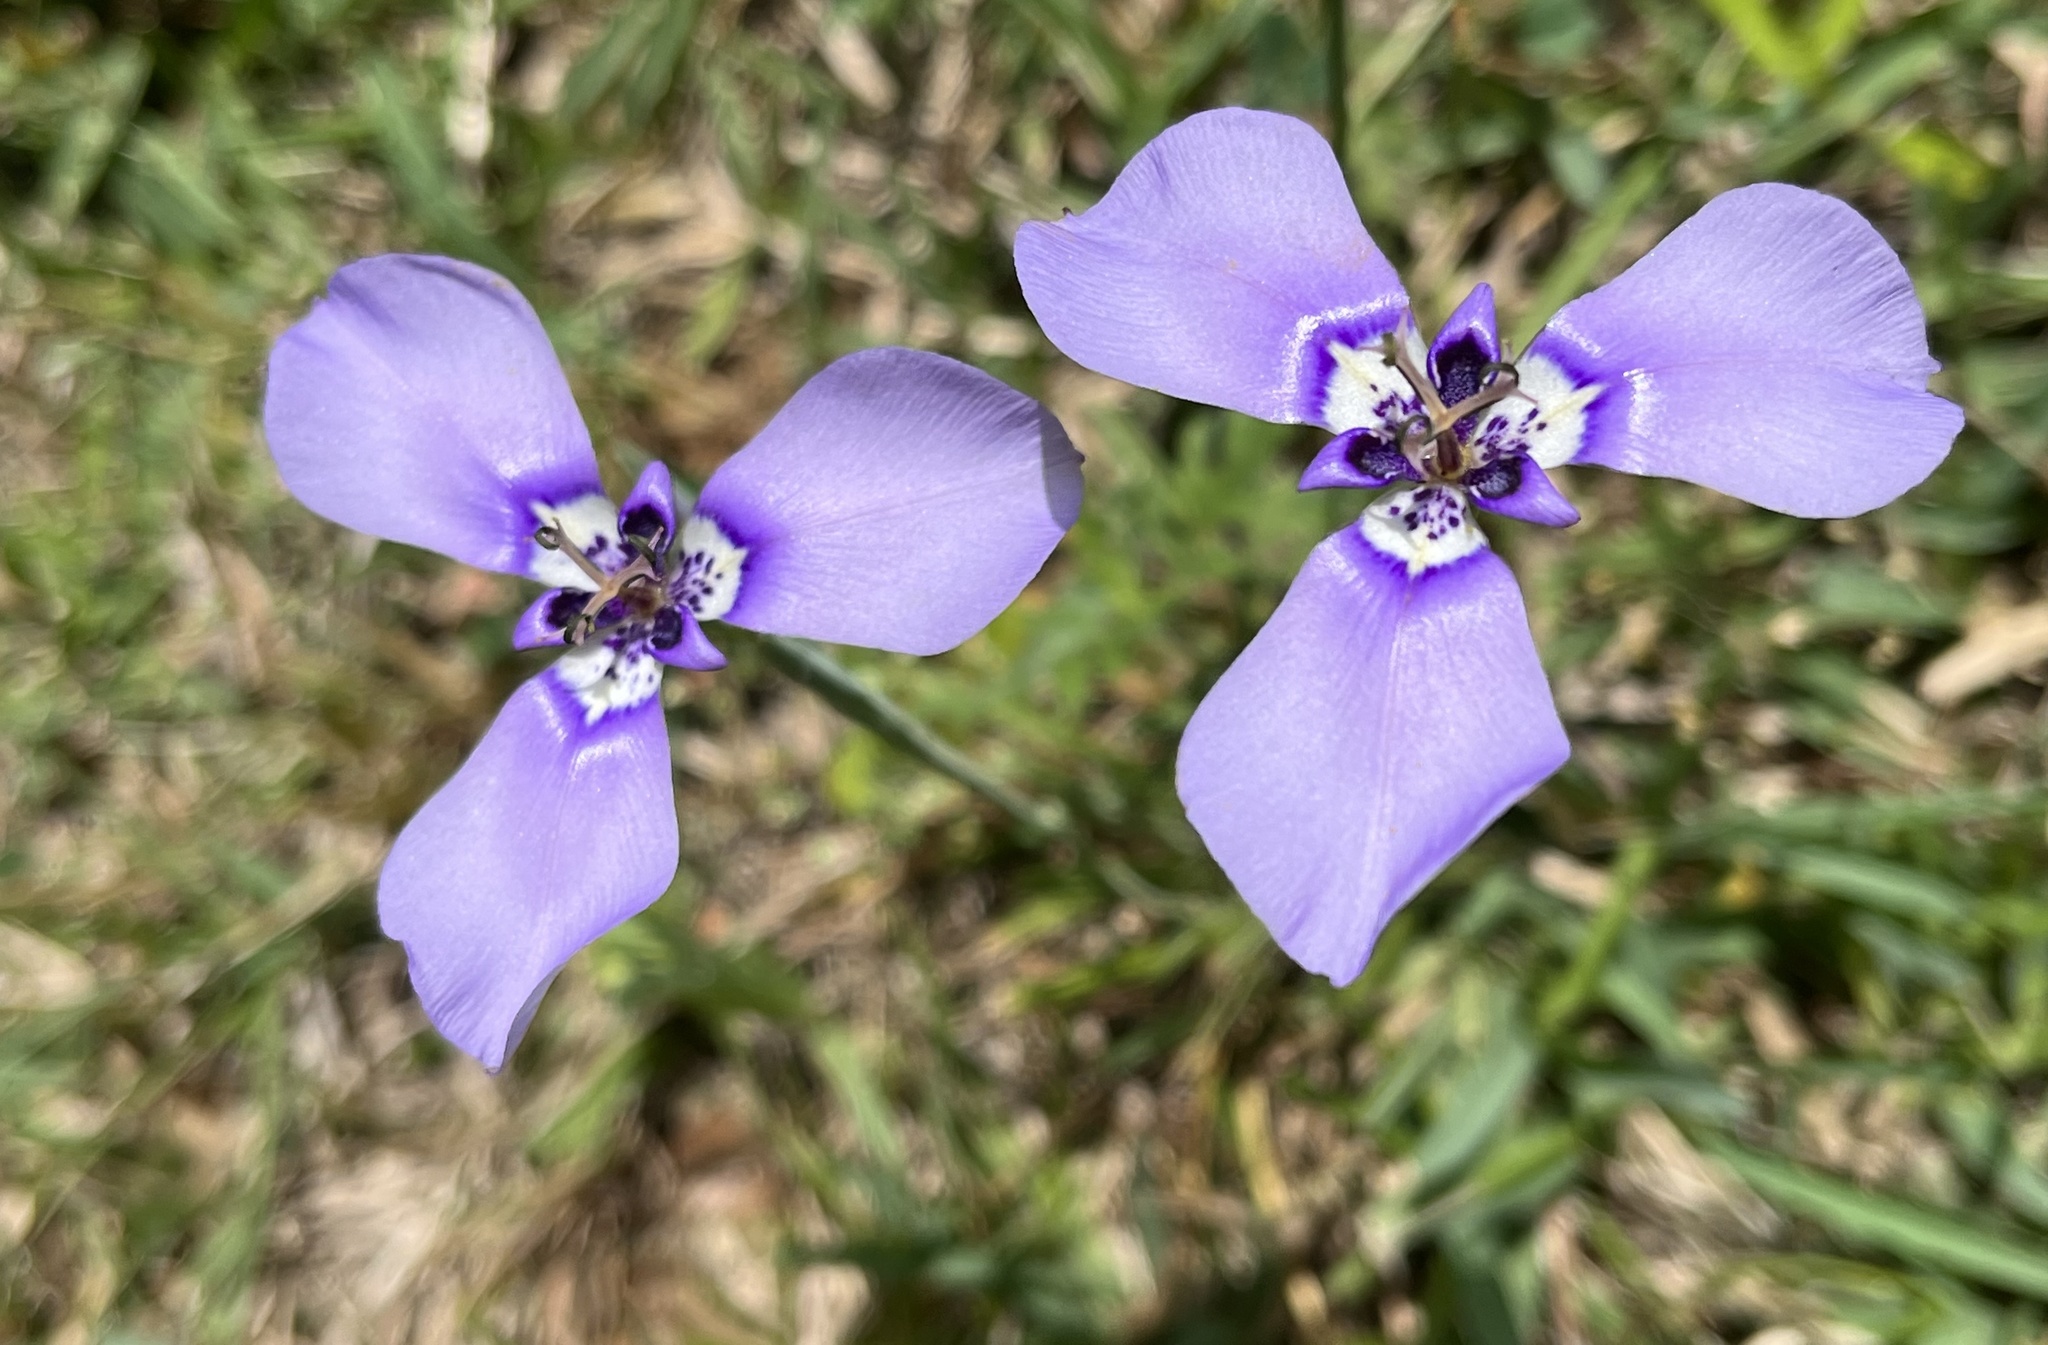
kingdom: Plantae
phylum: Tracheophyta
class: Liliopsida
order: Asparagales
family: Iridaceae
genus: Herbertia
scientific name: Herbertia lahue
